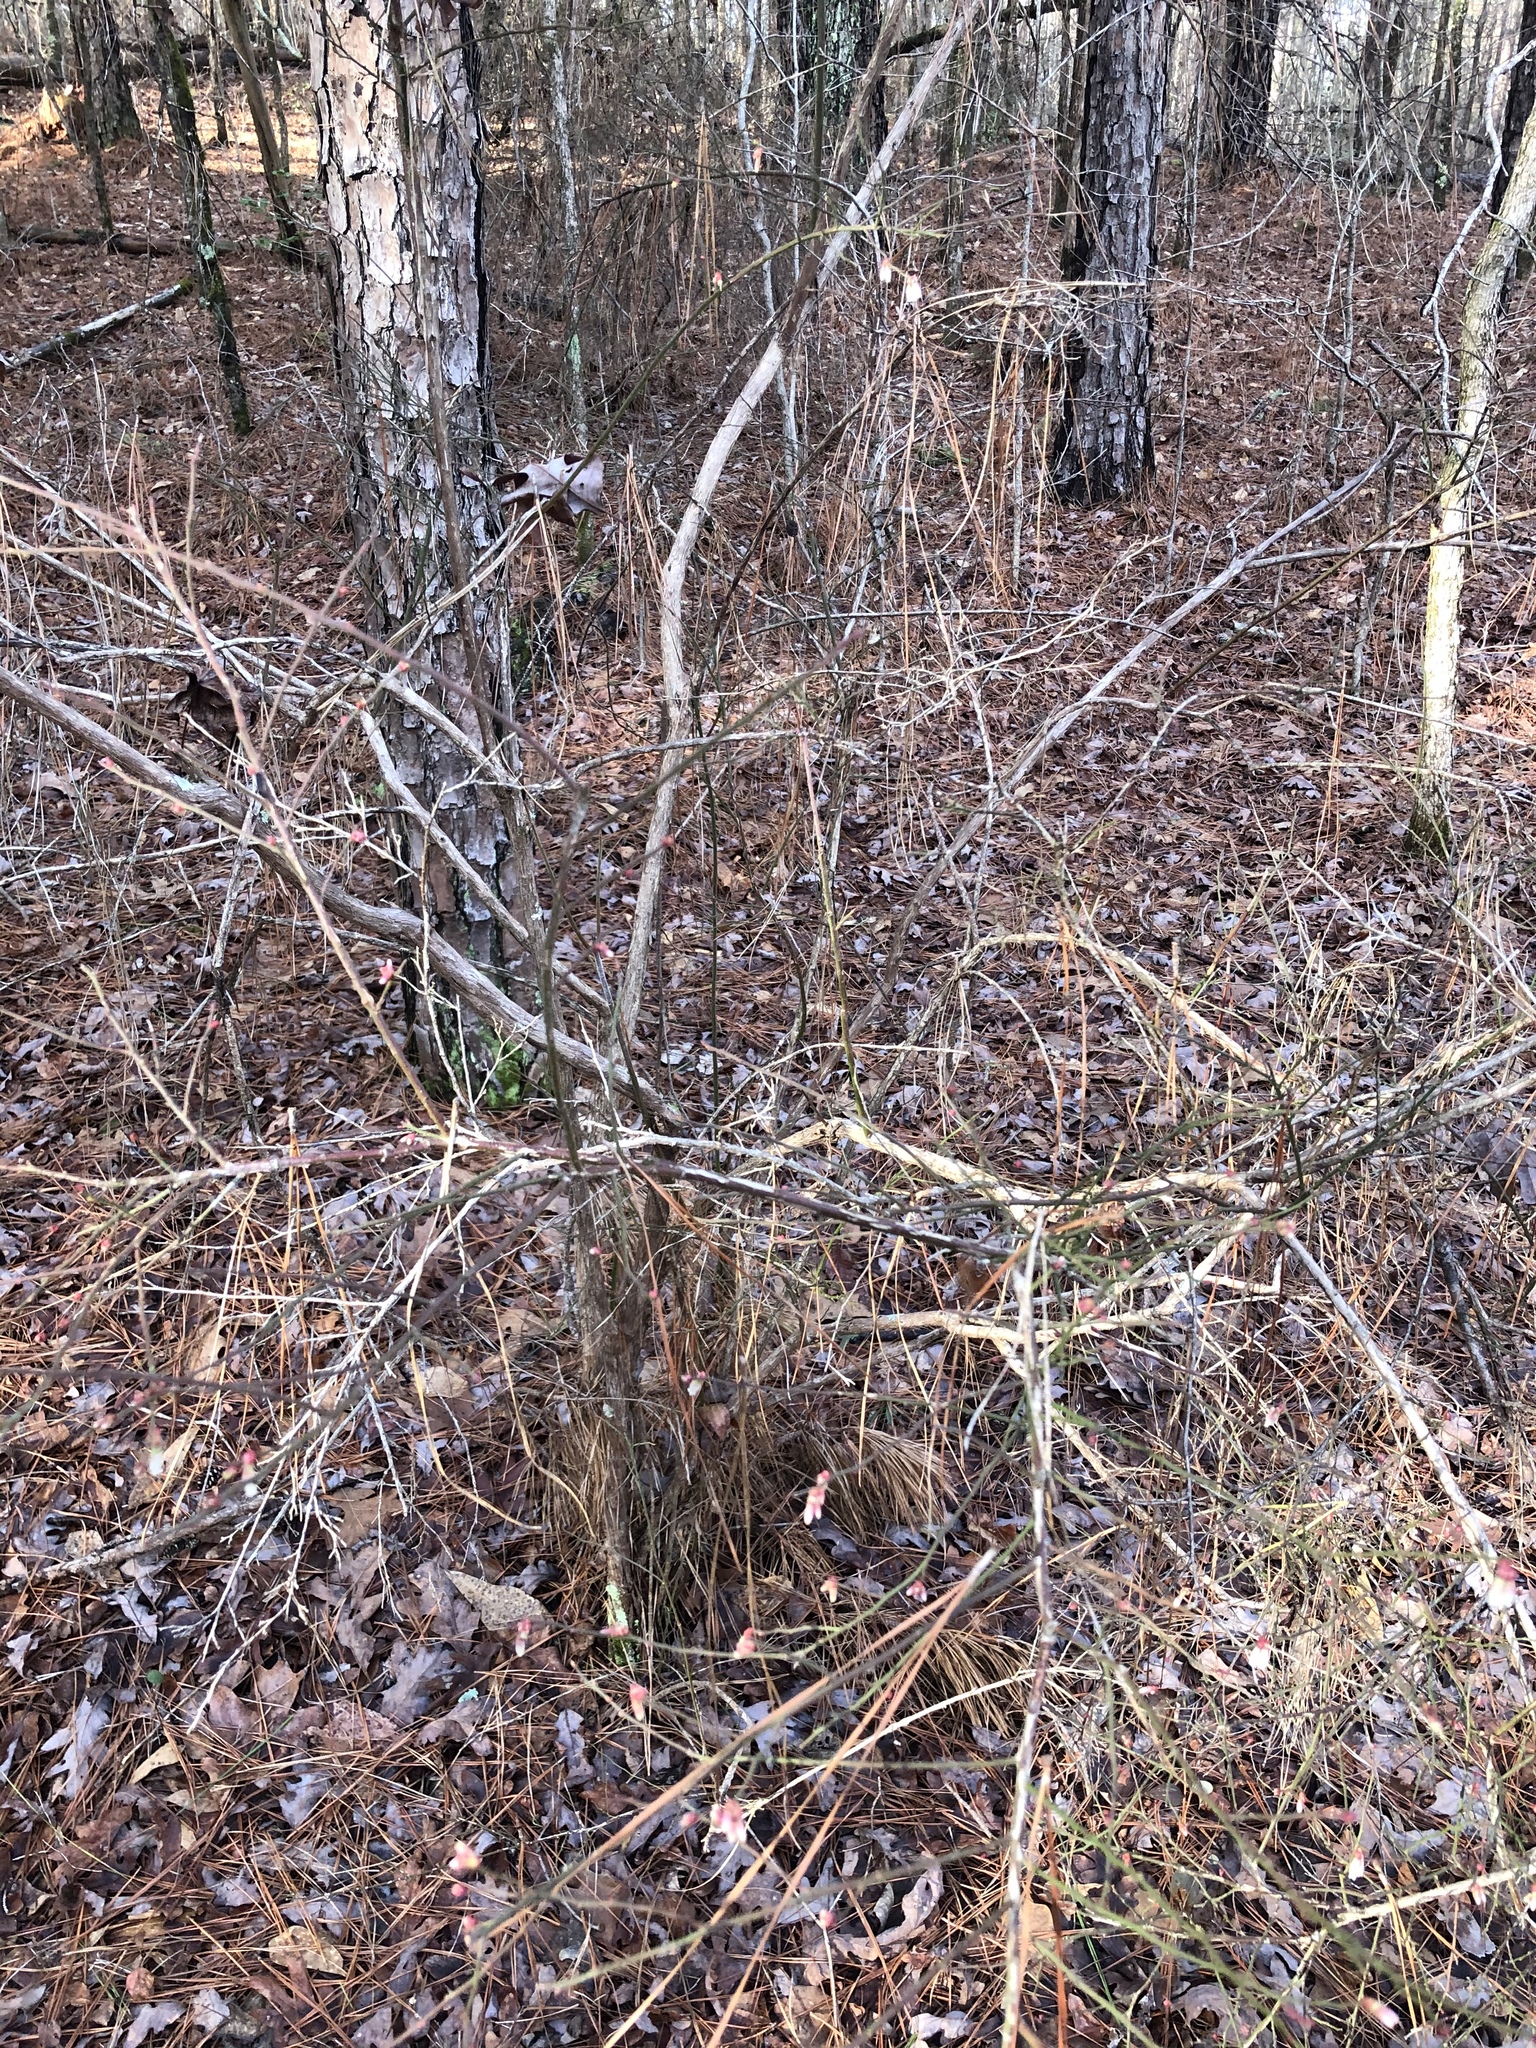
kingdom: Plantae
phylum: Tracheophyta
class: Magnoliopsida
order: Ericales
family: Ericaceae
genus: Vaccinium
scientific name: Vaccinium corymbosum
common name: Blueberry
